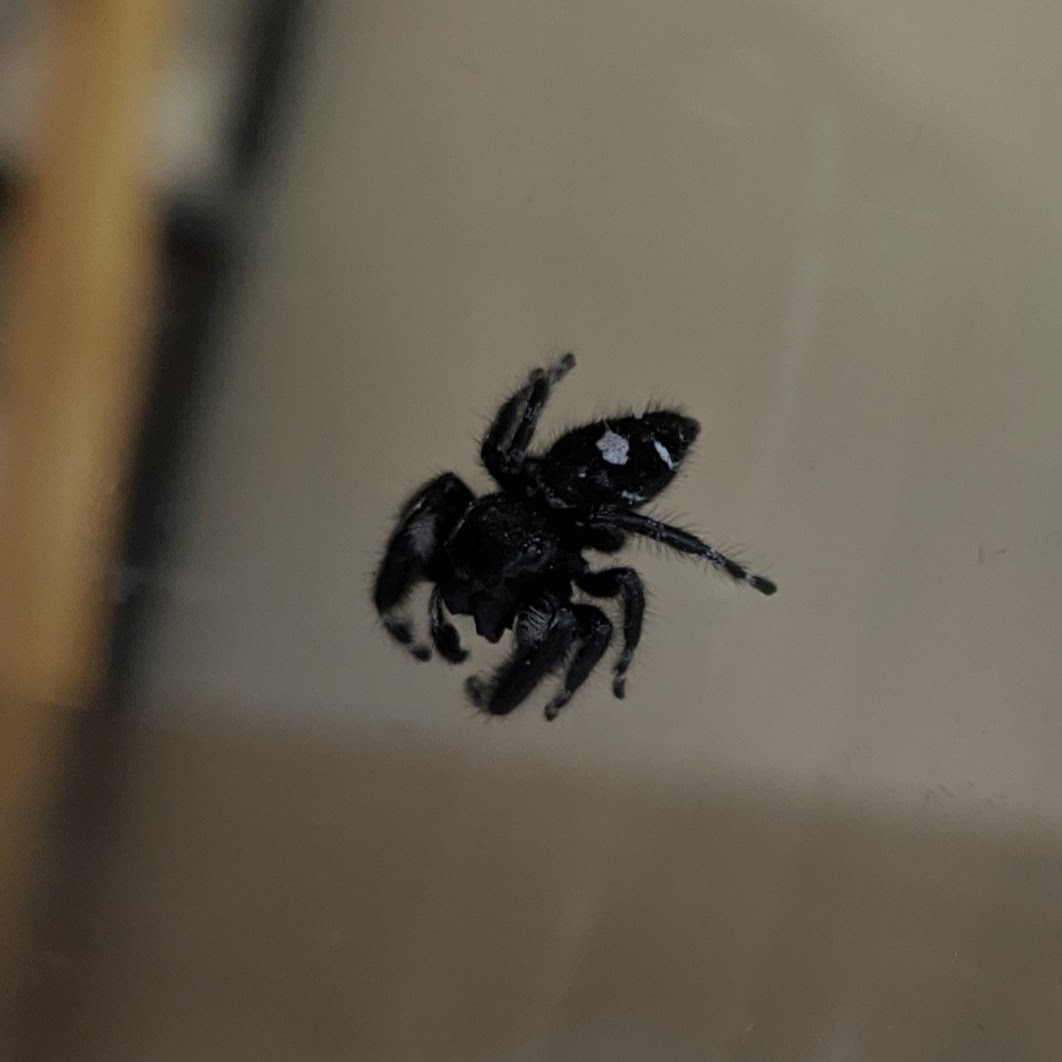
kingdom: Animalia
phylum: Arthropoda
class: Arachnida
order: Araneae
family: Salticidae
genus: Phidippus
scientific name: Phidippus audax
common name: Bold jumper
